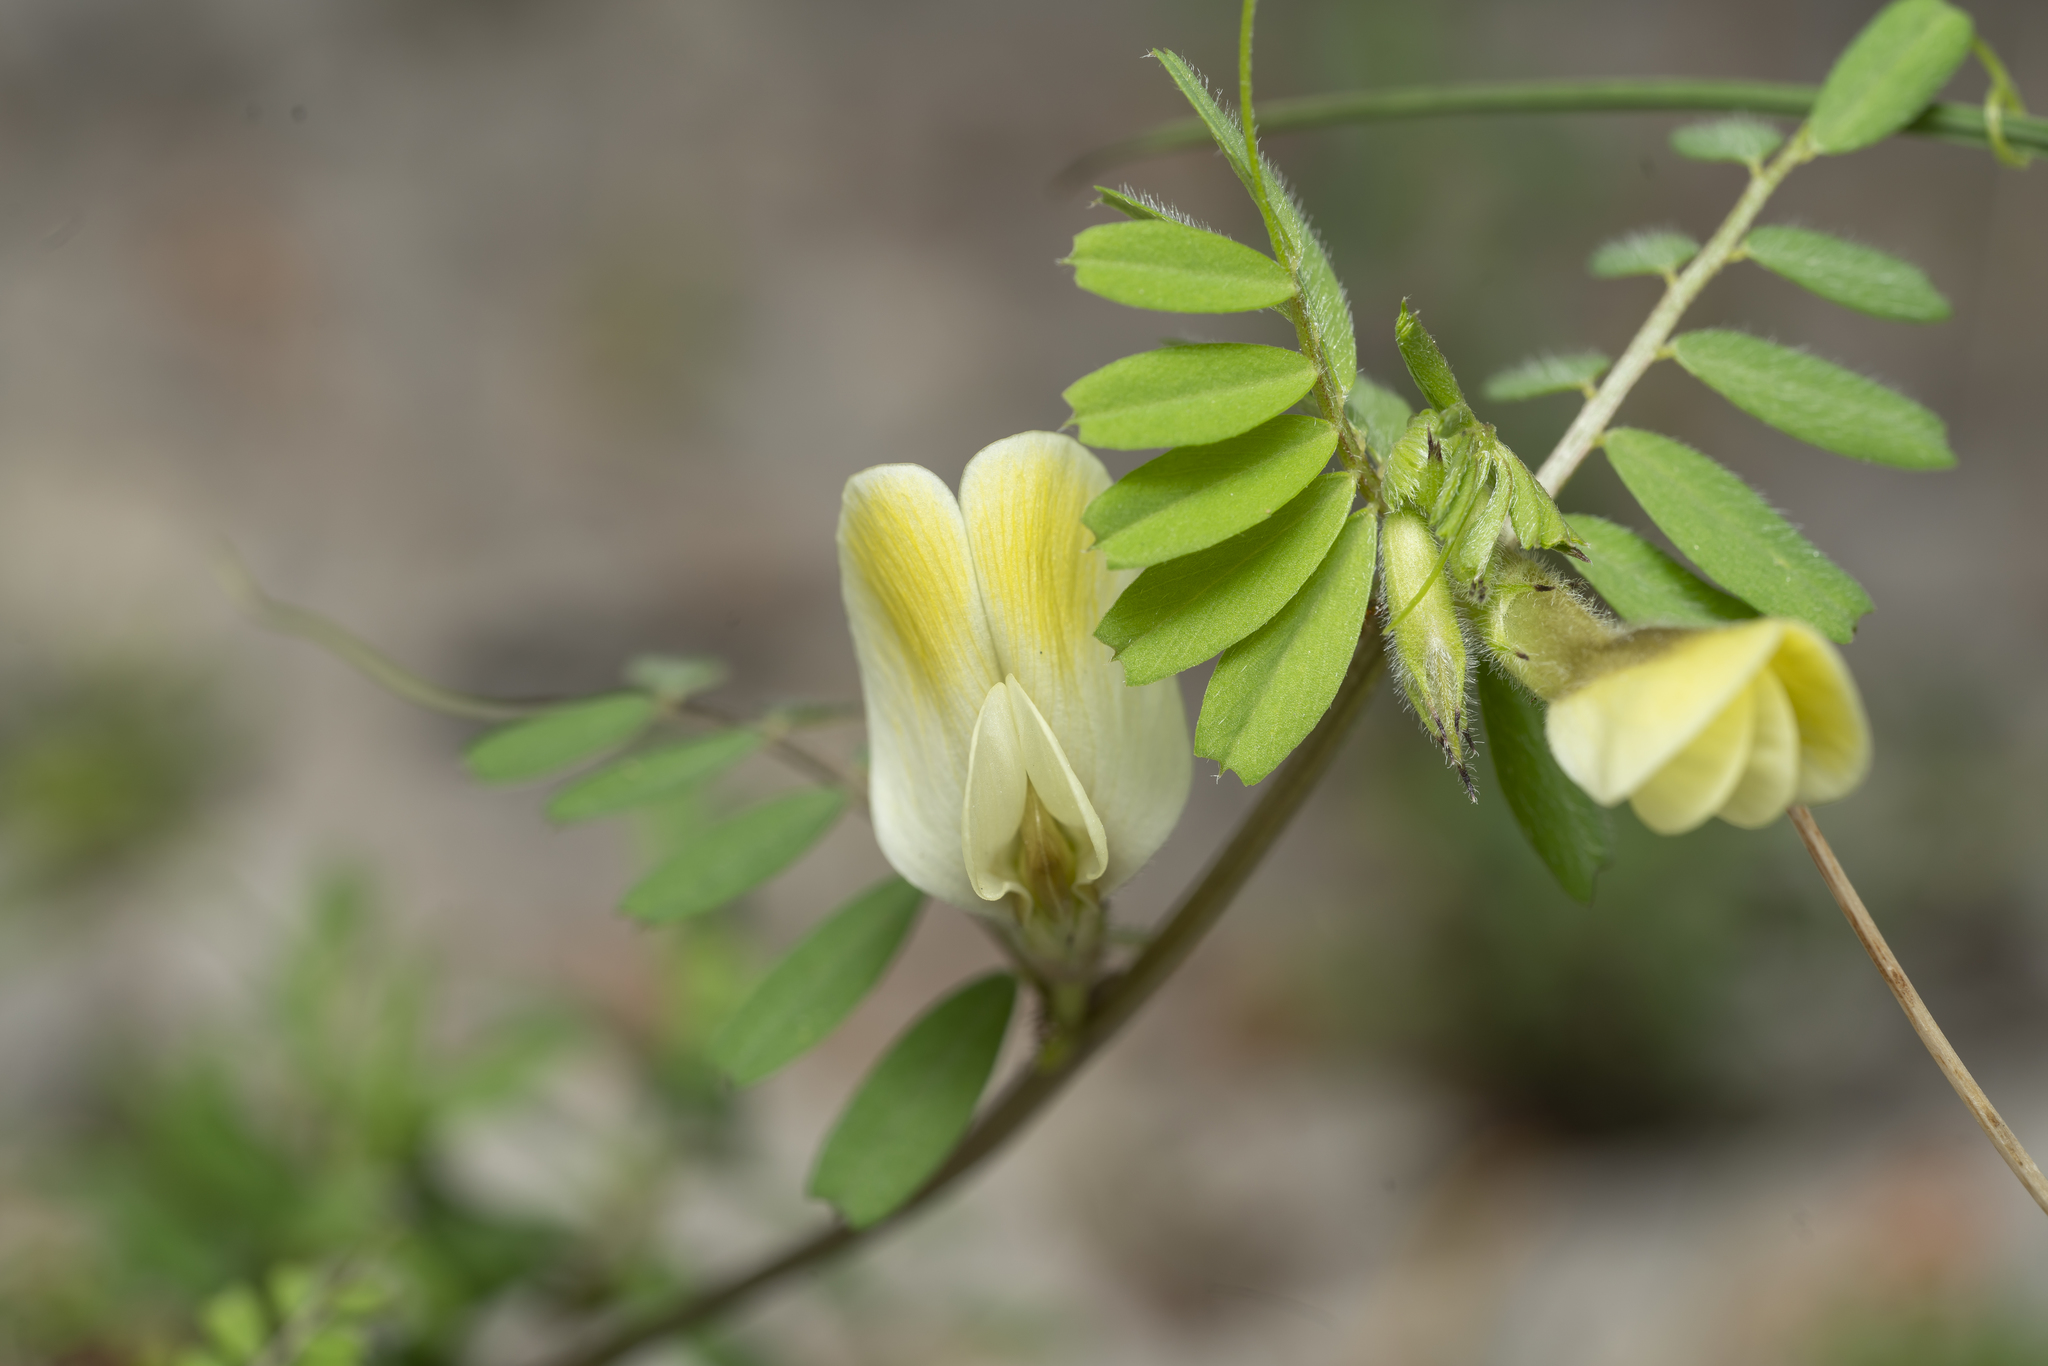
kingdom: Plantae
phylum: Tracheophyta
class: Magnoliopsida
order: Fabales
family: Fabaceae
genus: Vicia
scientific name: Vicia hybrida
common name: Hairy yellow vetch
